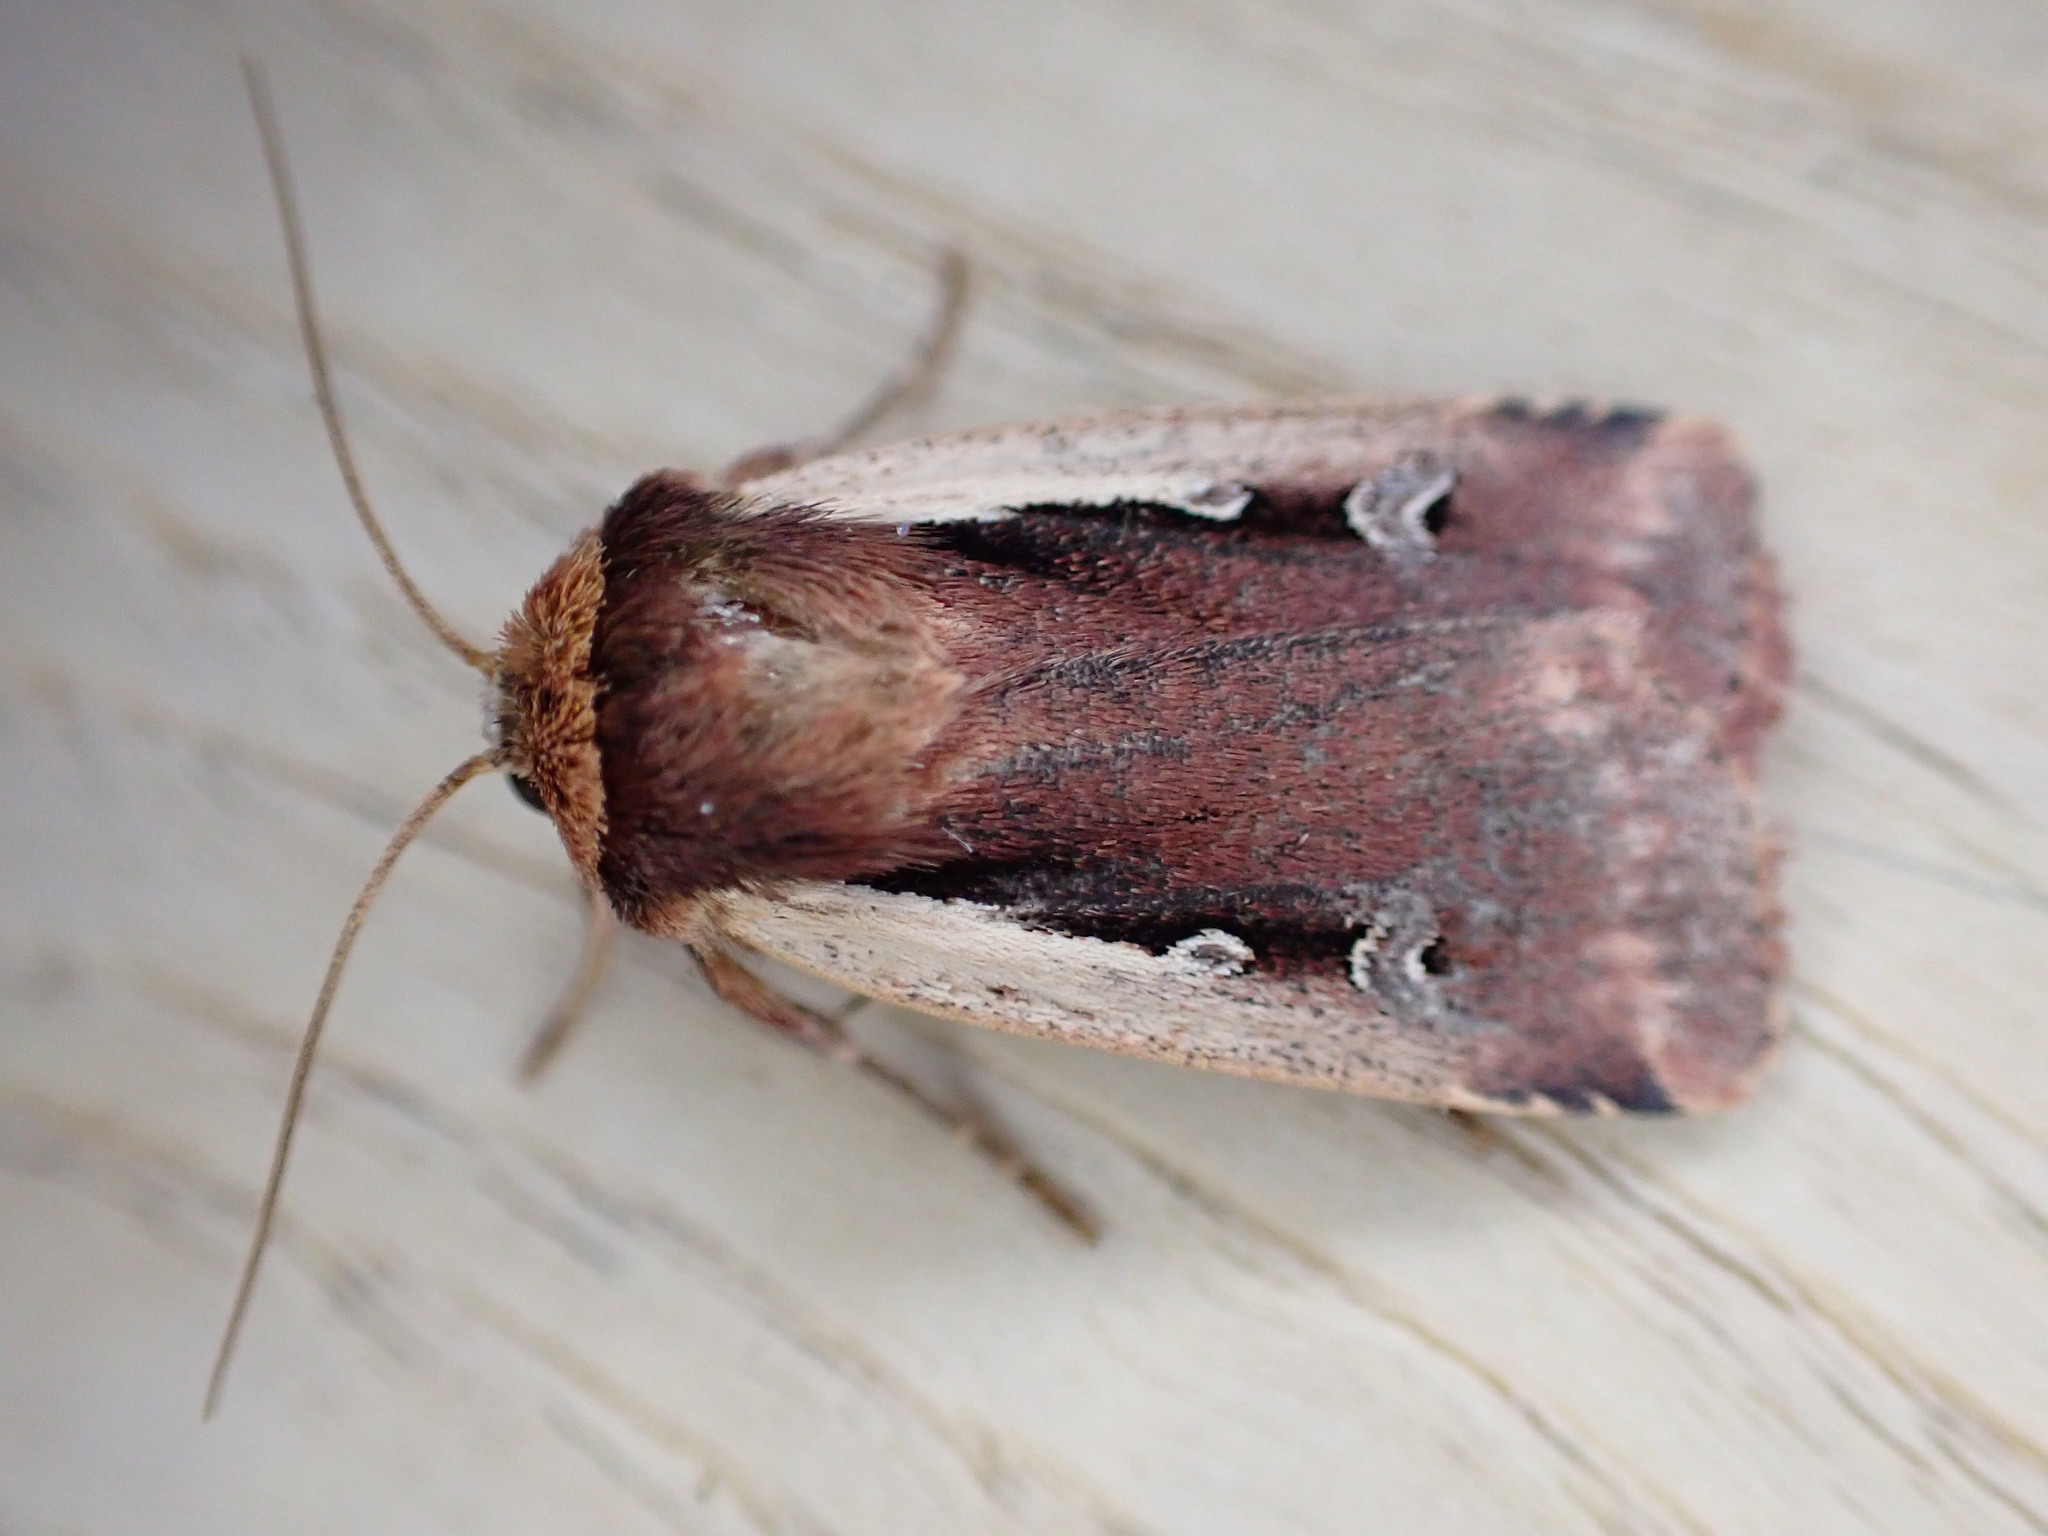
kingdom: Animalia
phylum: Arthropoda
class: Insecta
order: Lepidoptera
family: Noctuidae
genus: Ochropleura
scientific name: Ochropleura plecta
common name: Flame shoulder
